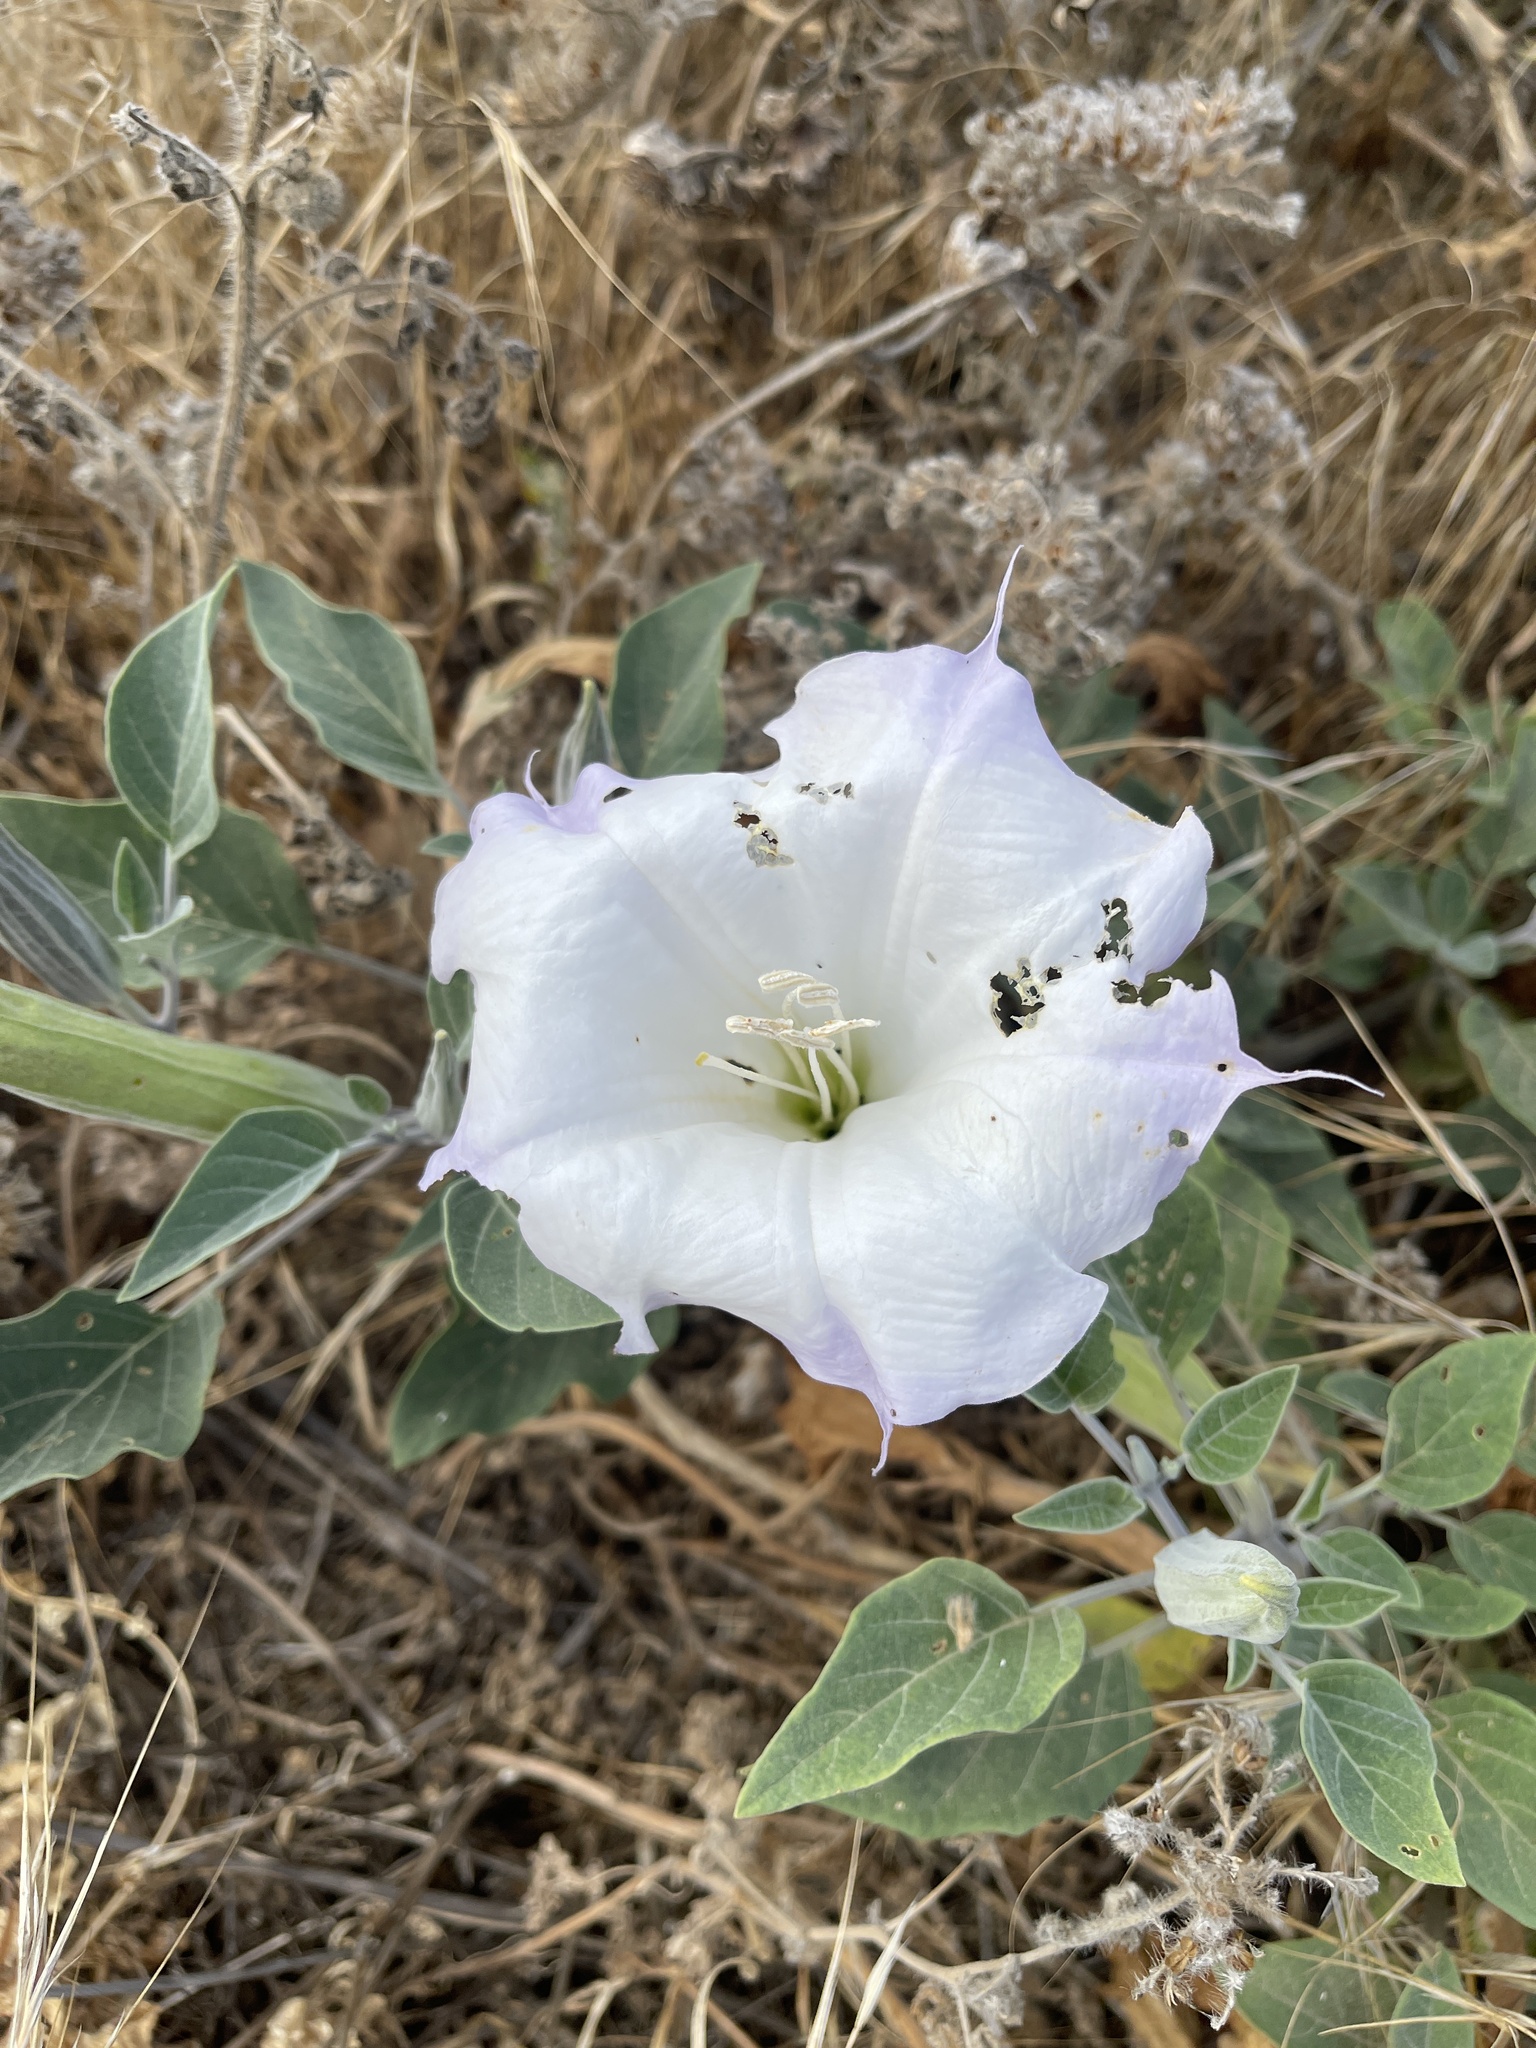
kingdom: Plantae
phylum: Tracheophyta
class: Magnoliopsida
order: Solanales
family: Solanaceae
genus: Datura
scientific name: Datura wrightii
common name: Sacred thorn-apple
